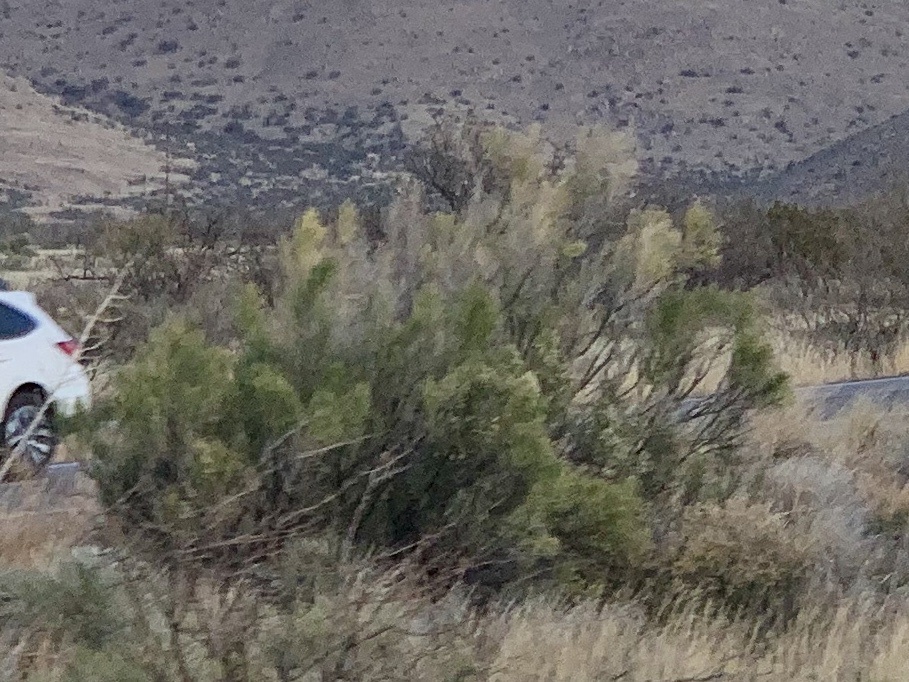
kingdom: Plantae
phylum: Tracheophyta
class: Magnoliopsida
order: Asterales
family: Asteraceae
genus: Baccharis
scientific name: Baccharis sarothroides
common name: Desert-broom
